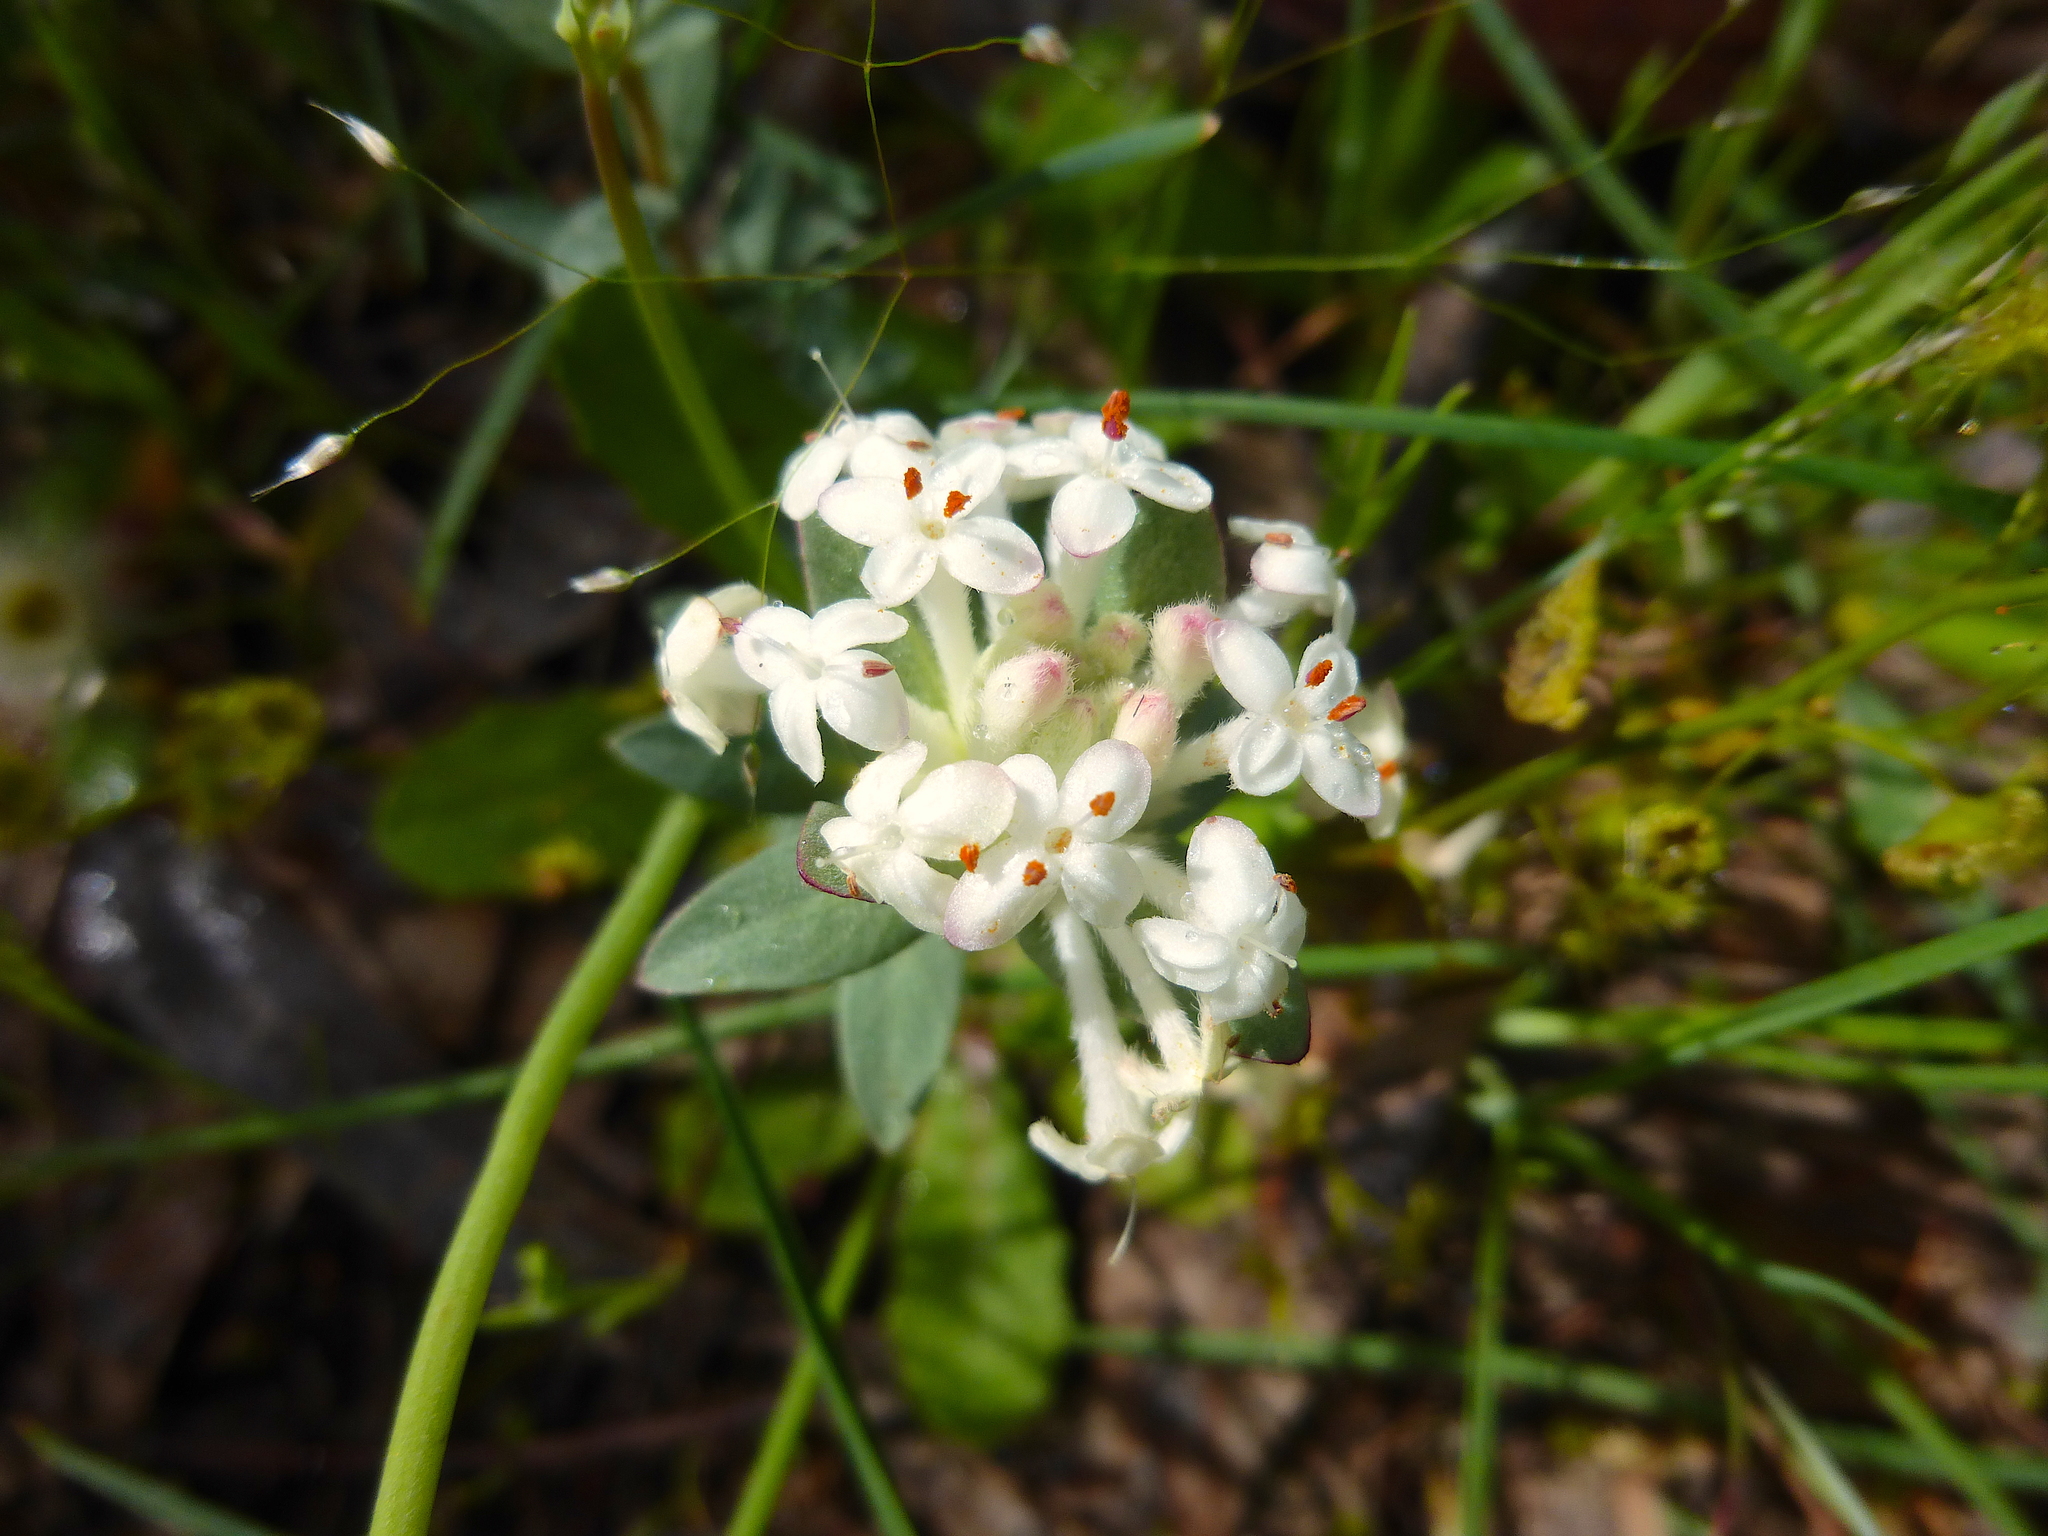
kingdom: Plantae
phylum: Tracheophyta
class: Magnoliopsida
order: Malvales
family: Thymelaeaceae
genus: Pimelea
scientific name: Pimelea humilis
